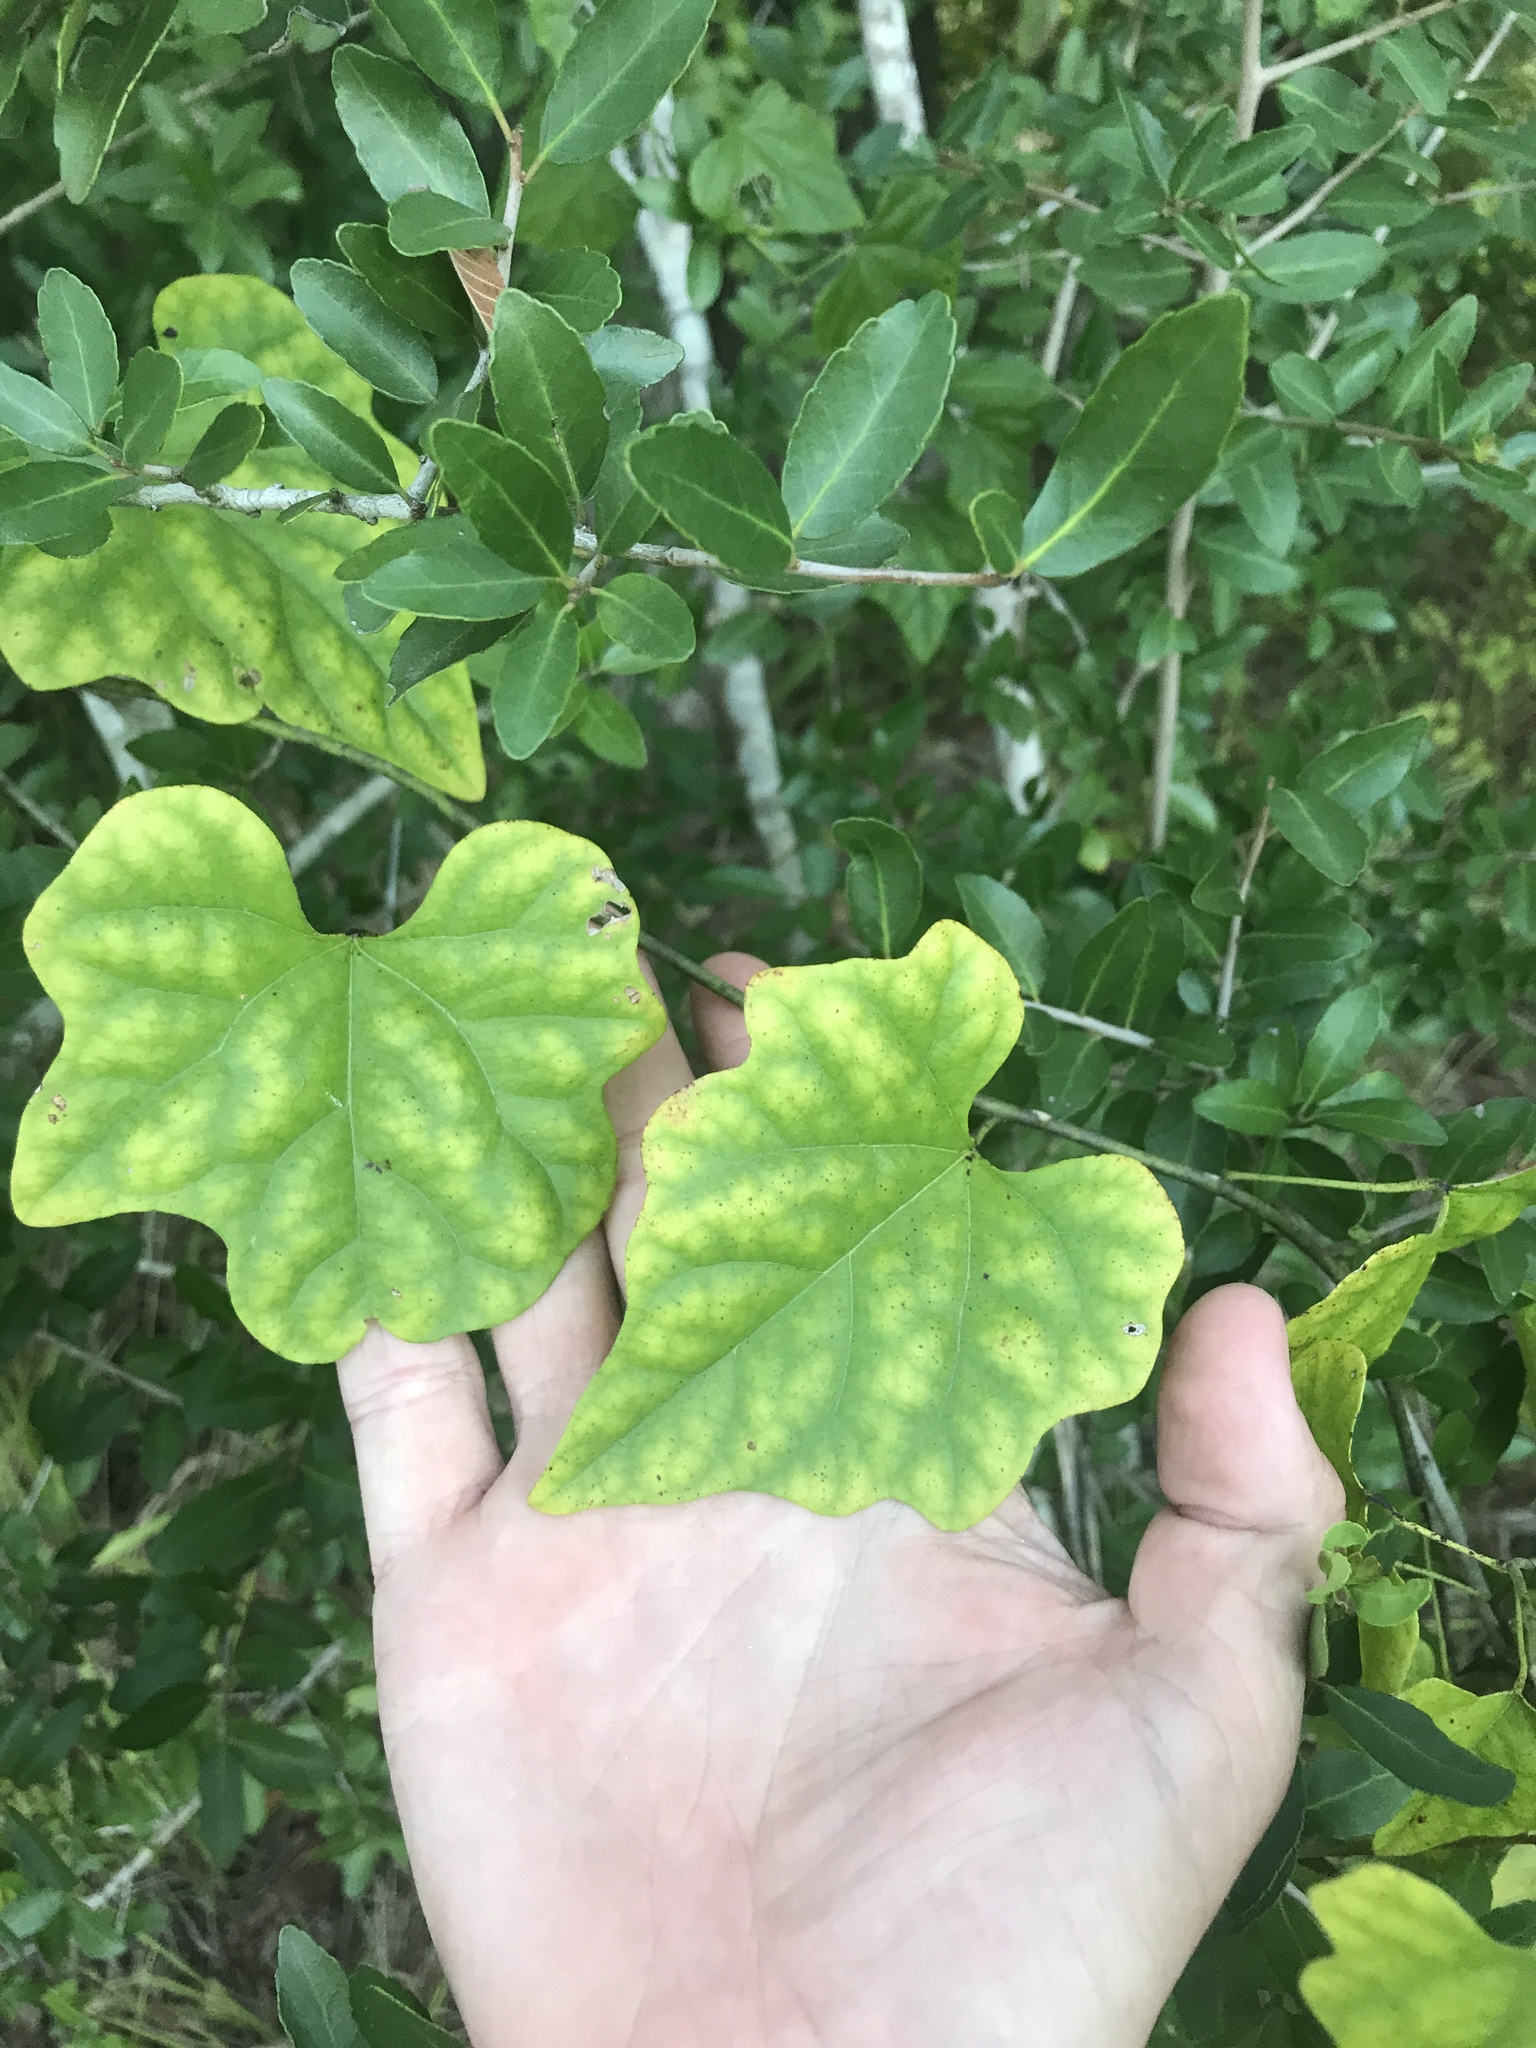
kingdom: Plantae
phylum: Tracheophyta
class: Magnoliopsida
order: Ranunculales
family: Menispermaceae
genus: Cocculus
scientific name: Cocculus carolinus
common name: Carolina moonseed
